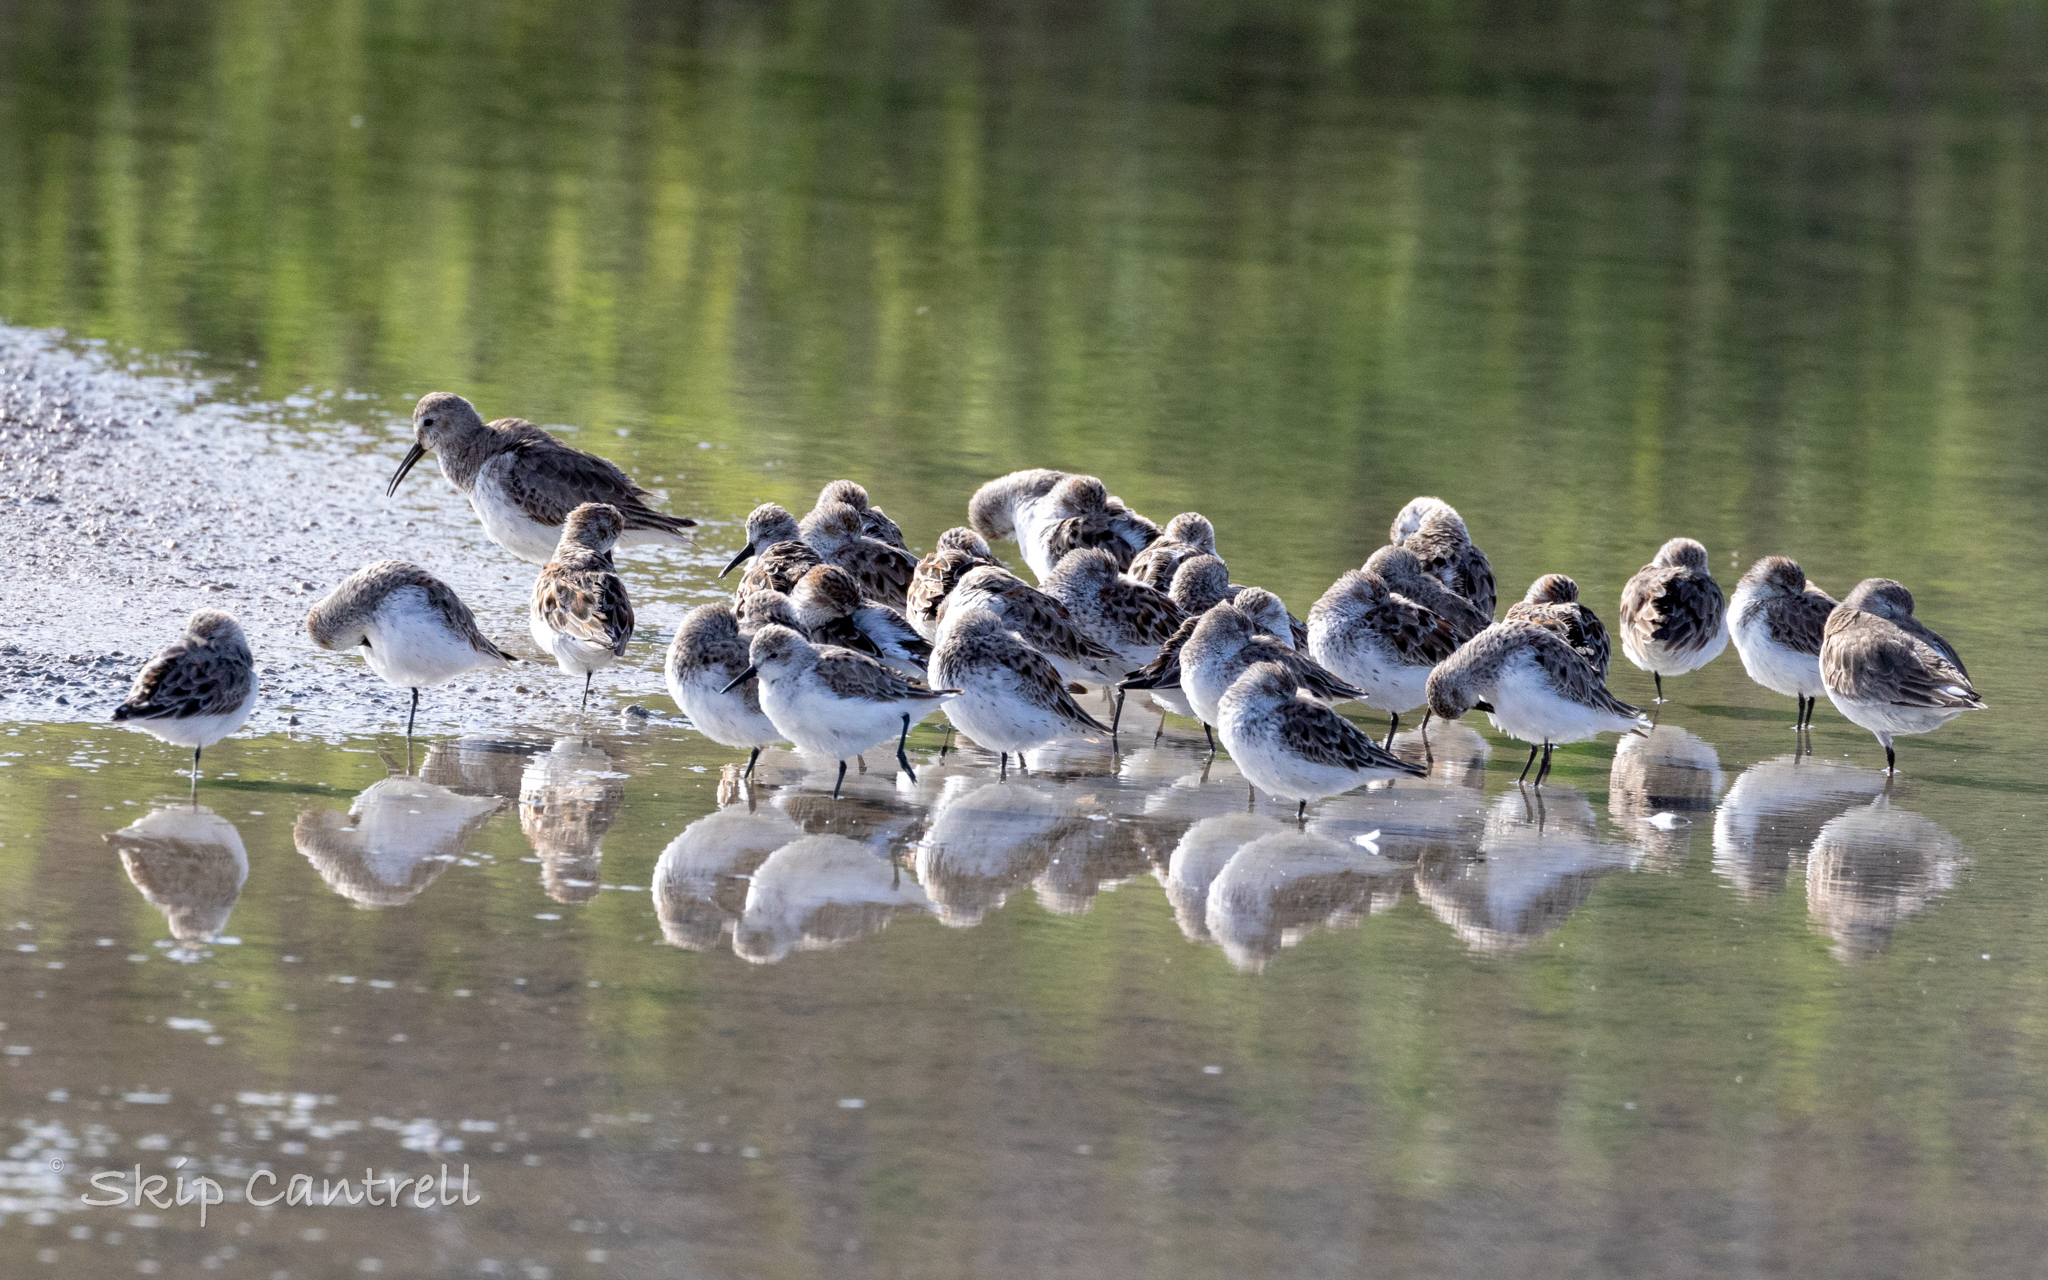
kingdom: Animalia
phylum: Chordata
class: Aves
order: Charadriiformes
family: Scolopacidae
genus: Calidris
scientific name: Calidris mauri
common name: Western sandpiper
